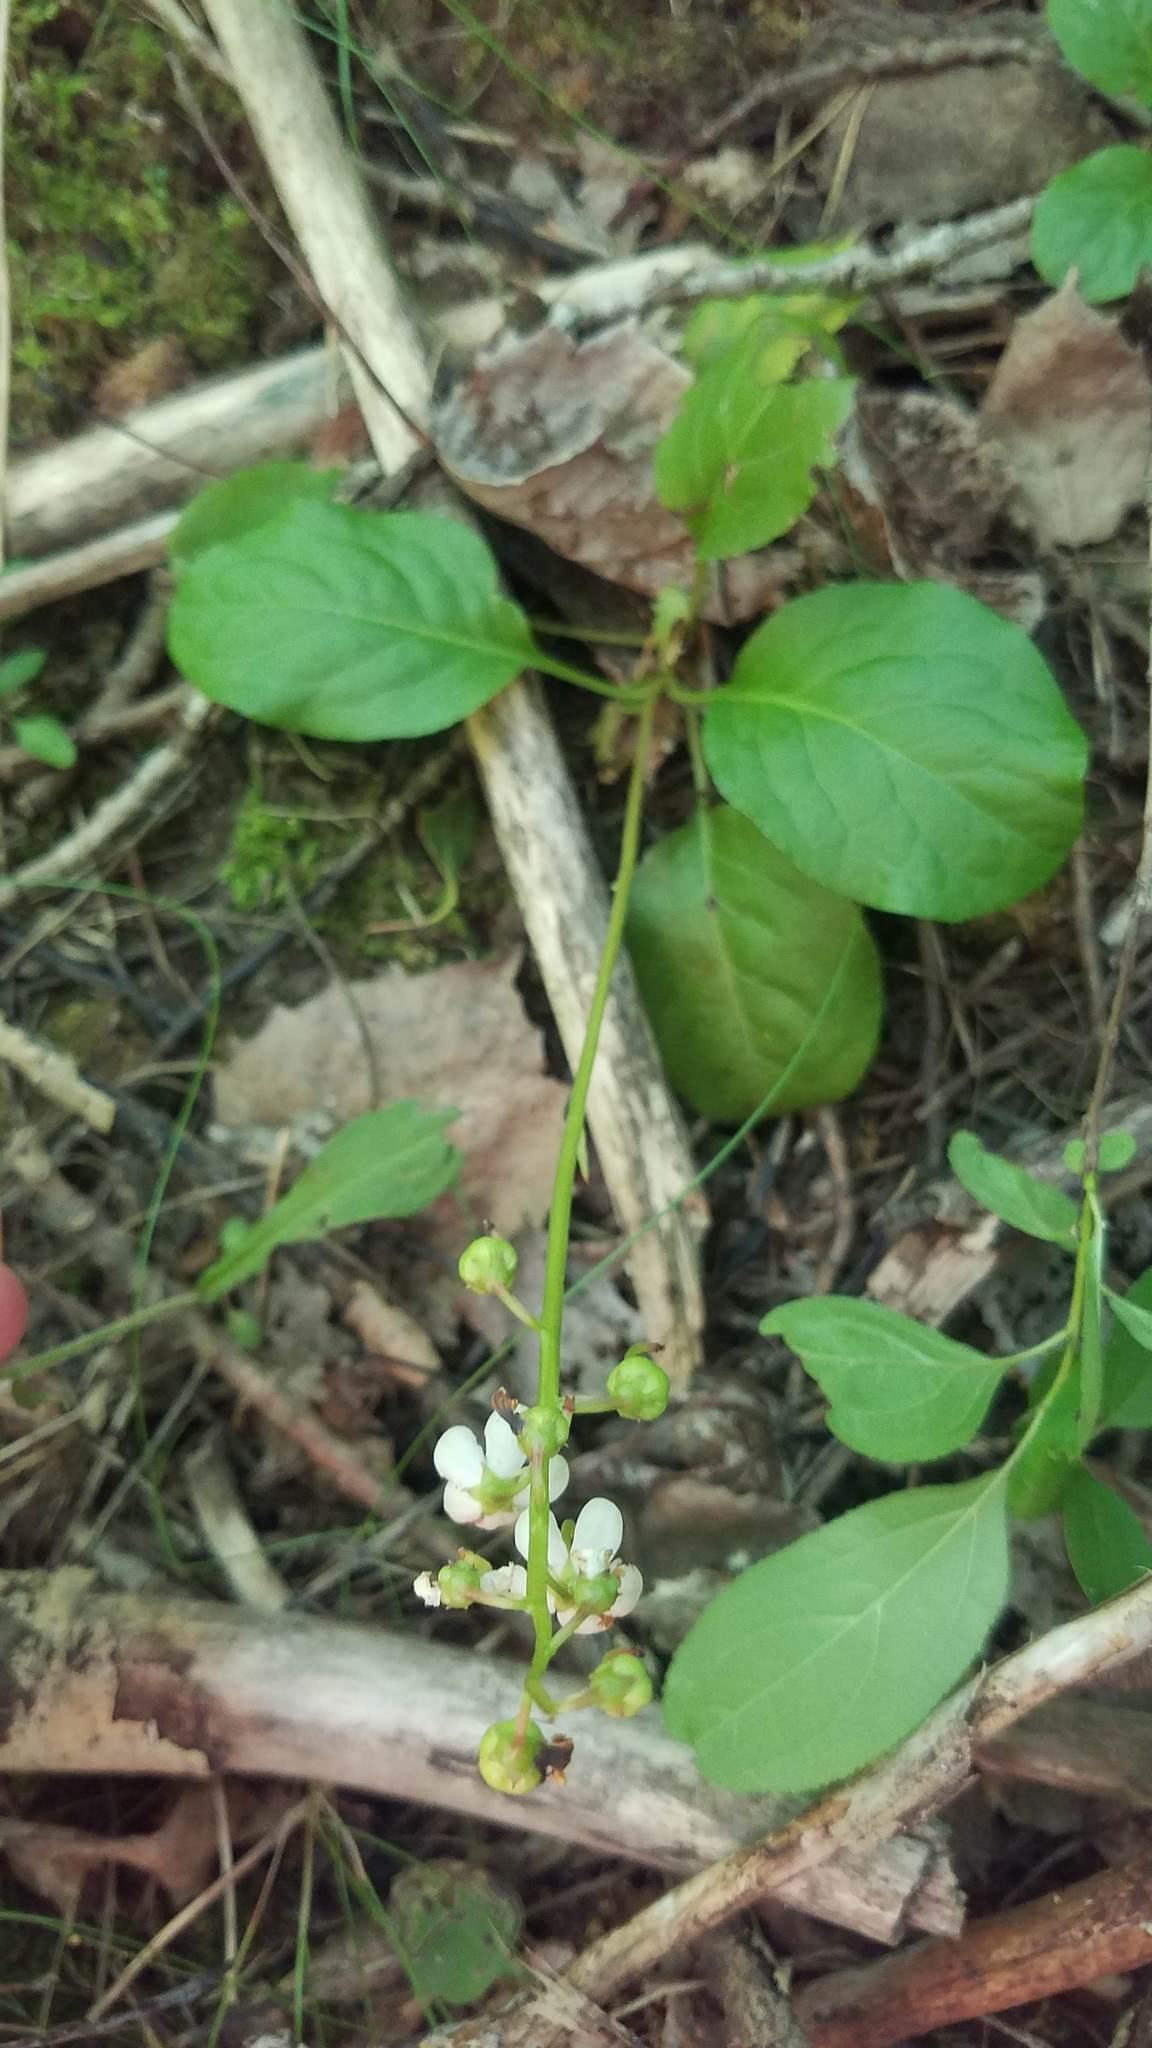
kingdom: Plantae
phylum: Tracheophyta
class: Magnoliopsida
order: Ericales
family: Ericaceae
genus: Pyrola
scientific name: Pyrola elliptica
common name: Shinleaf
